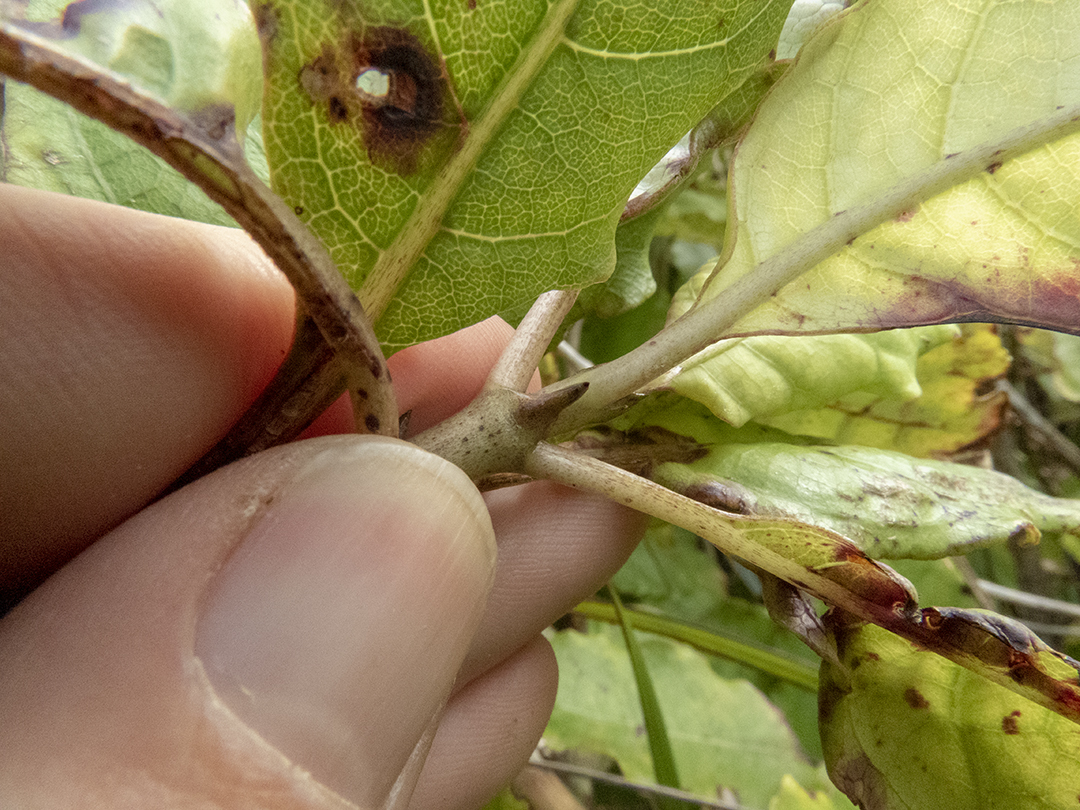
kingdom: Plantae
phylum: Tracheophyta
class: Magnoliopsida
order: Gentianales
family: Rubiaceae
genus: Coprosma
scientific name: Coprosma autumnalis
